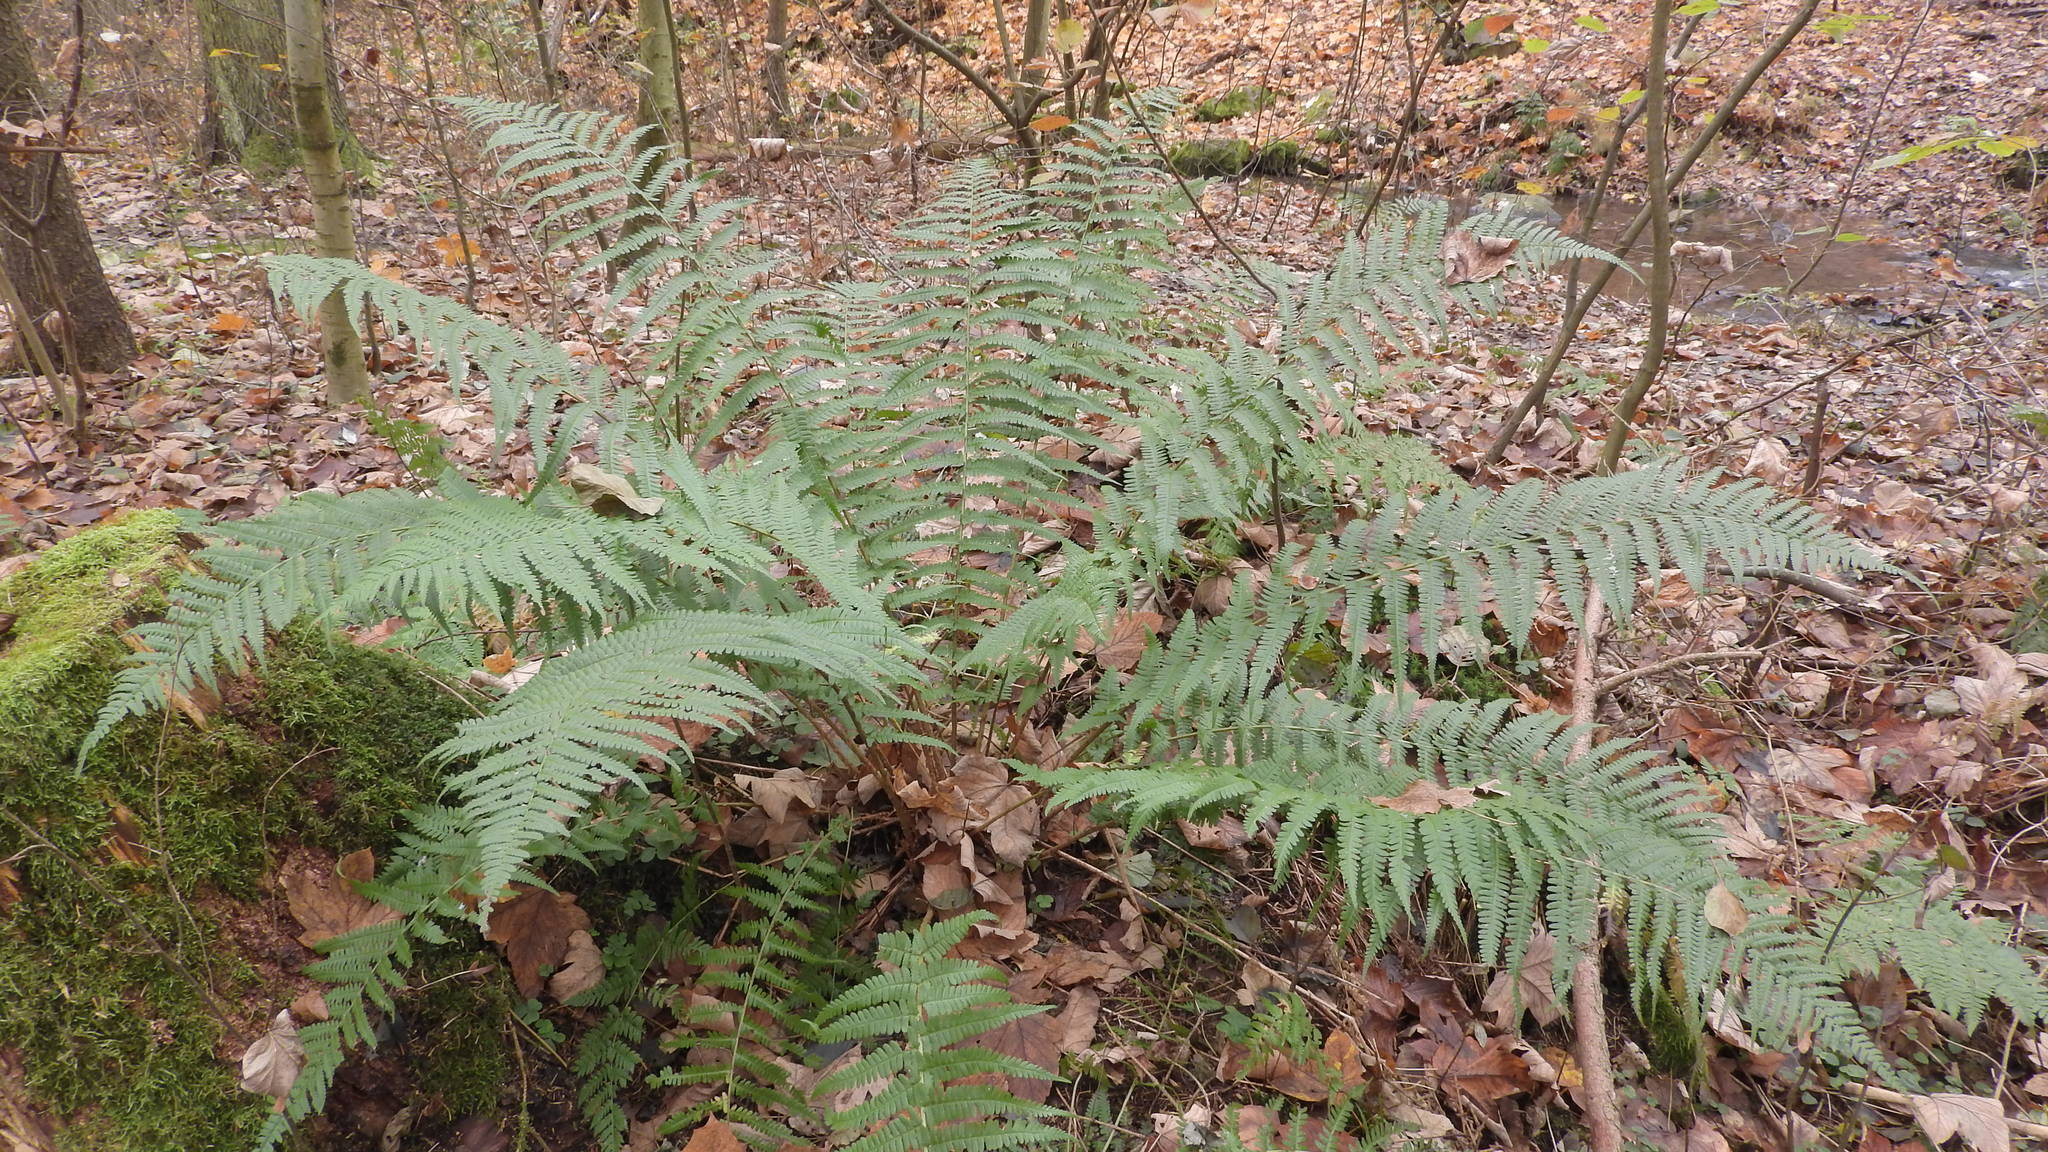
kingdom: Plantae
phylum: Tracheophyta
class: Polypodiopsida
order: Polypodiales
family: Dryopteridaceae
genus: Dryopteris
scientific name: Dryopteris filix-mas
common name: Male fern
